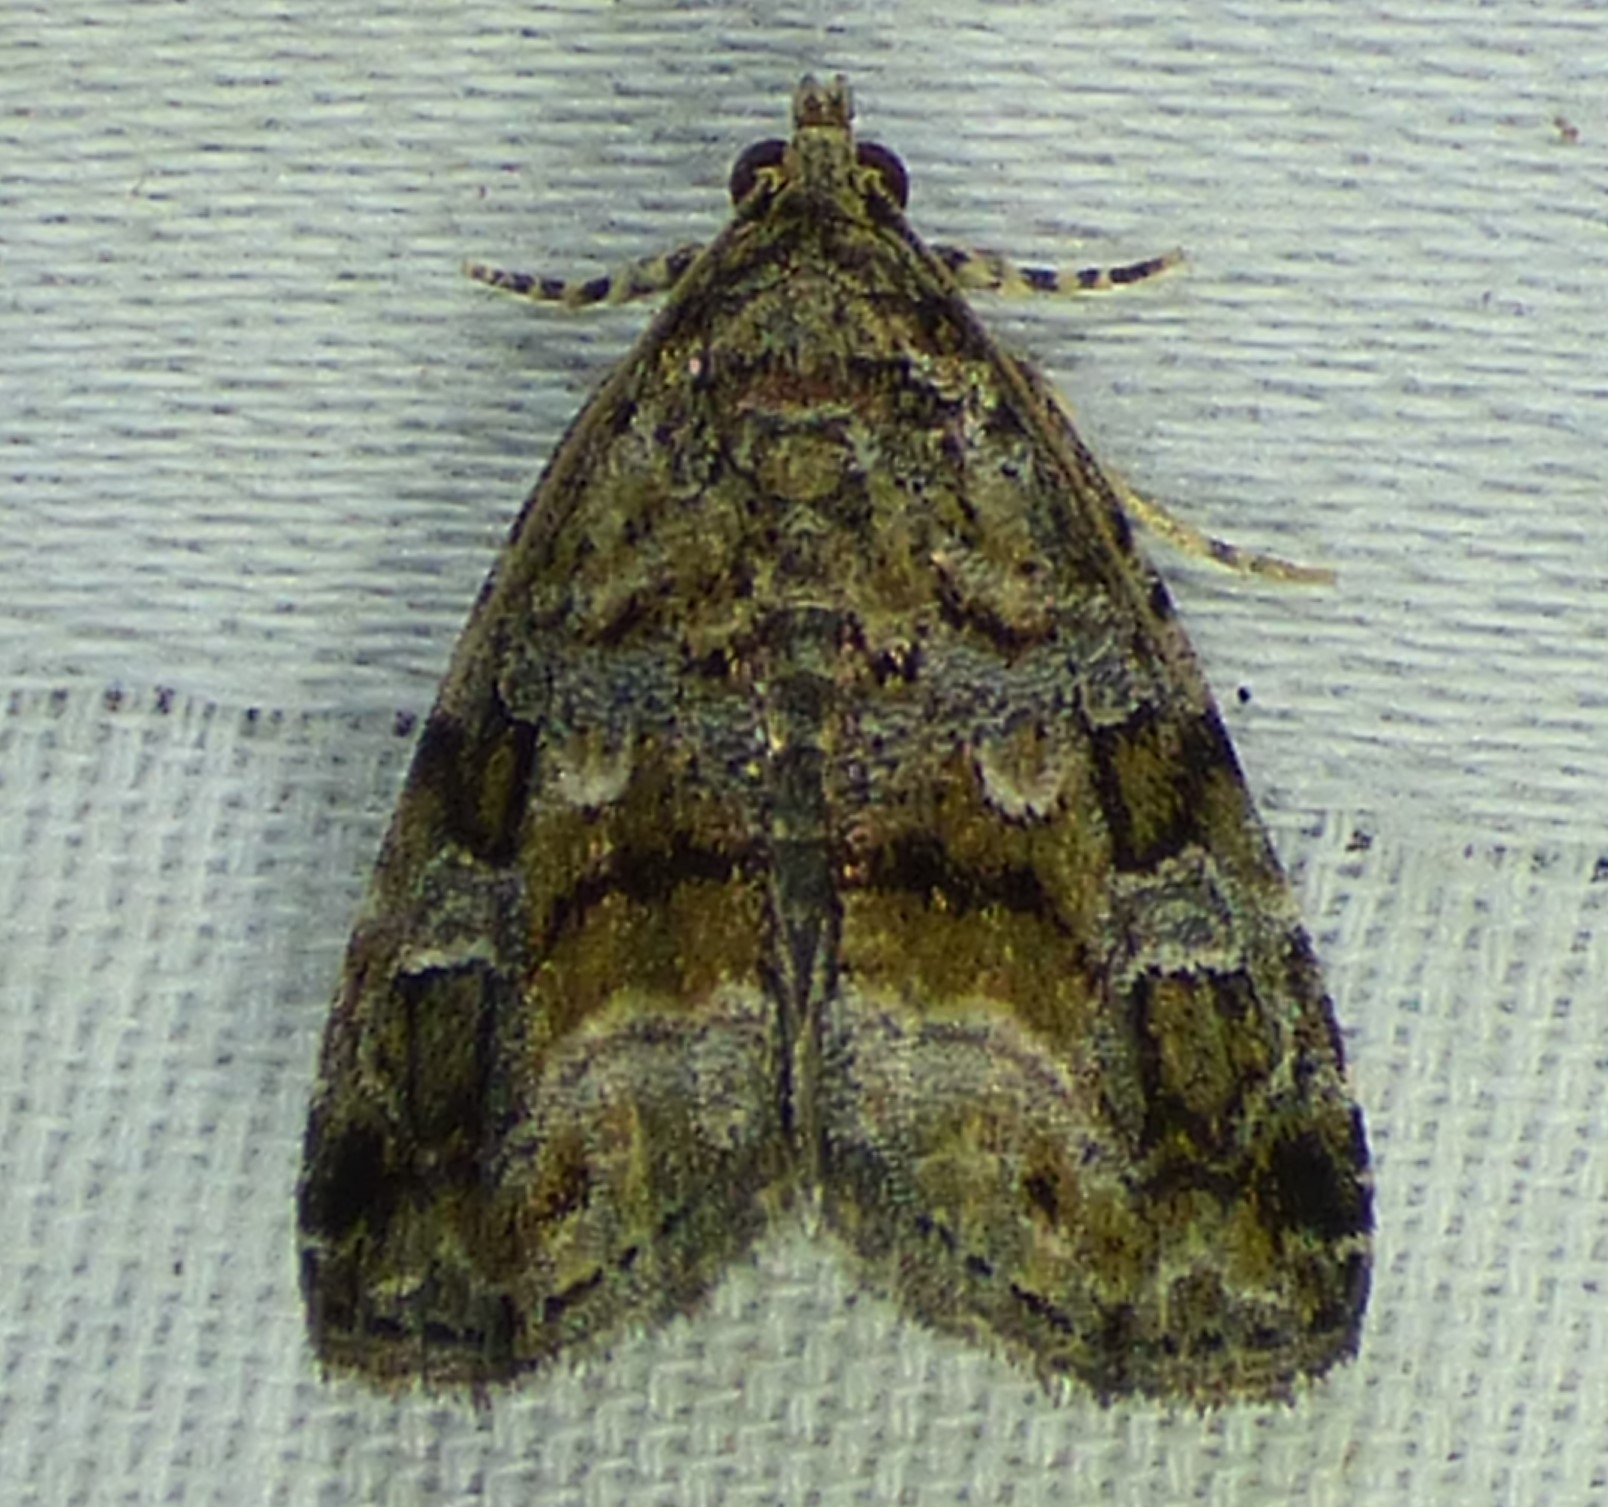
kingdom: Animalia
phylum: Arthropoda
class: Insecta
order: Lepidoptera
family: Noctuidae
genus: Protodeltote
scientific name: Protodeltote muscosula
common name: Large mossy glyph
